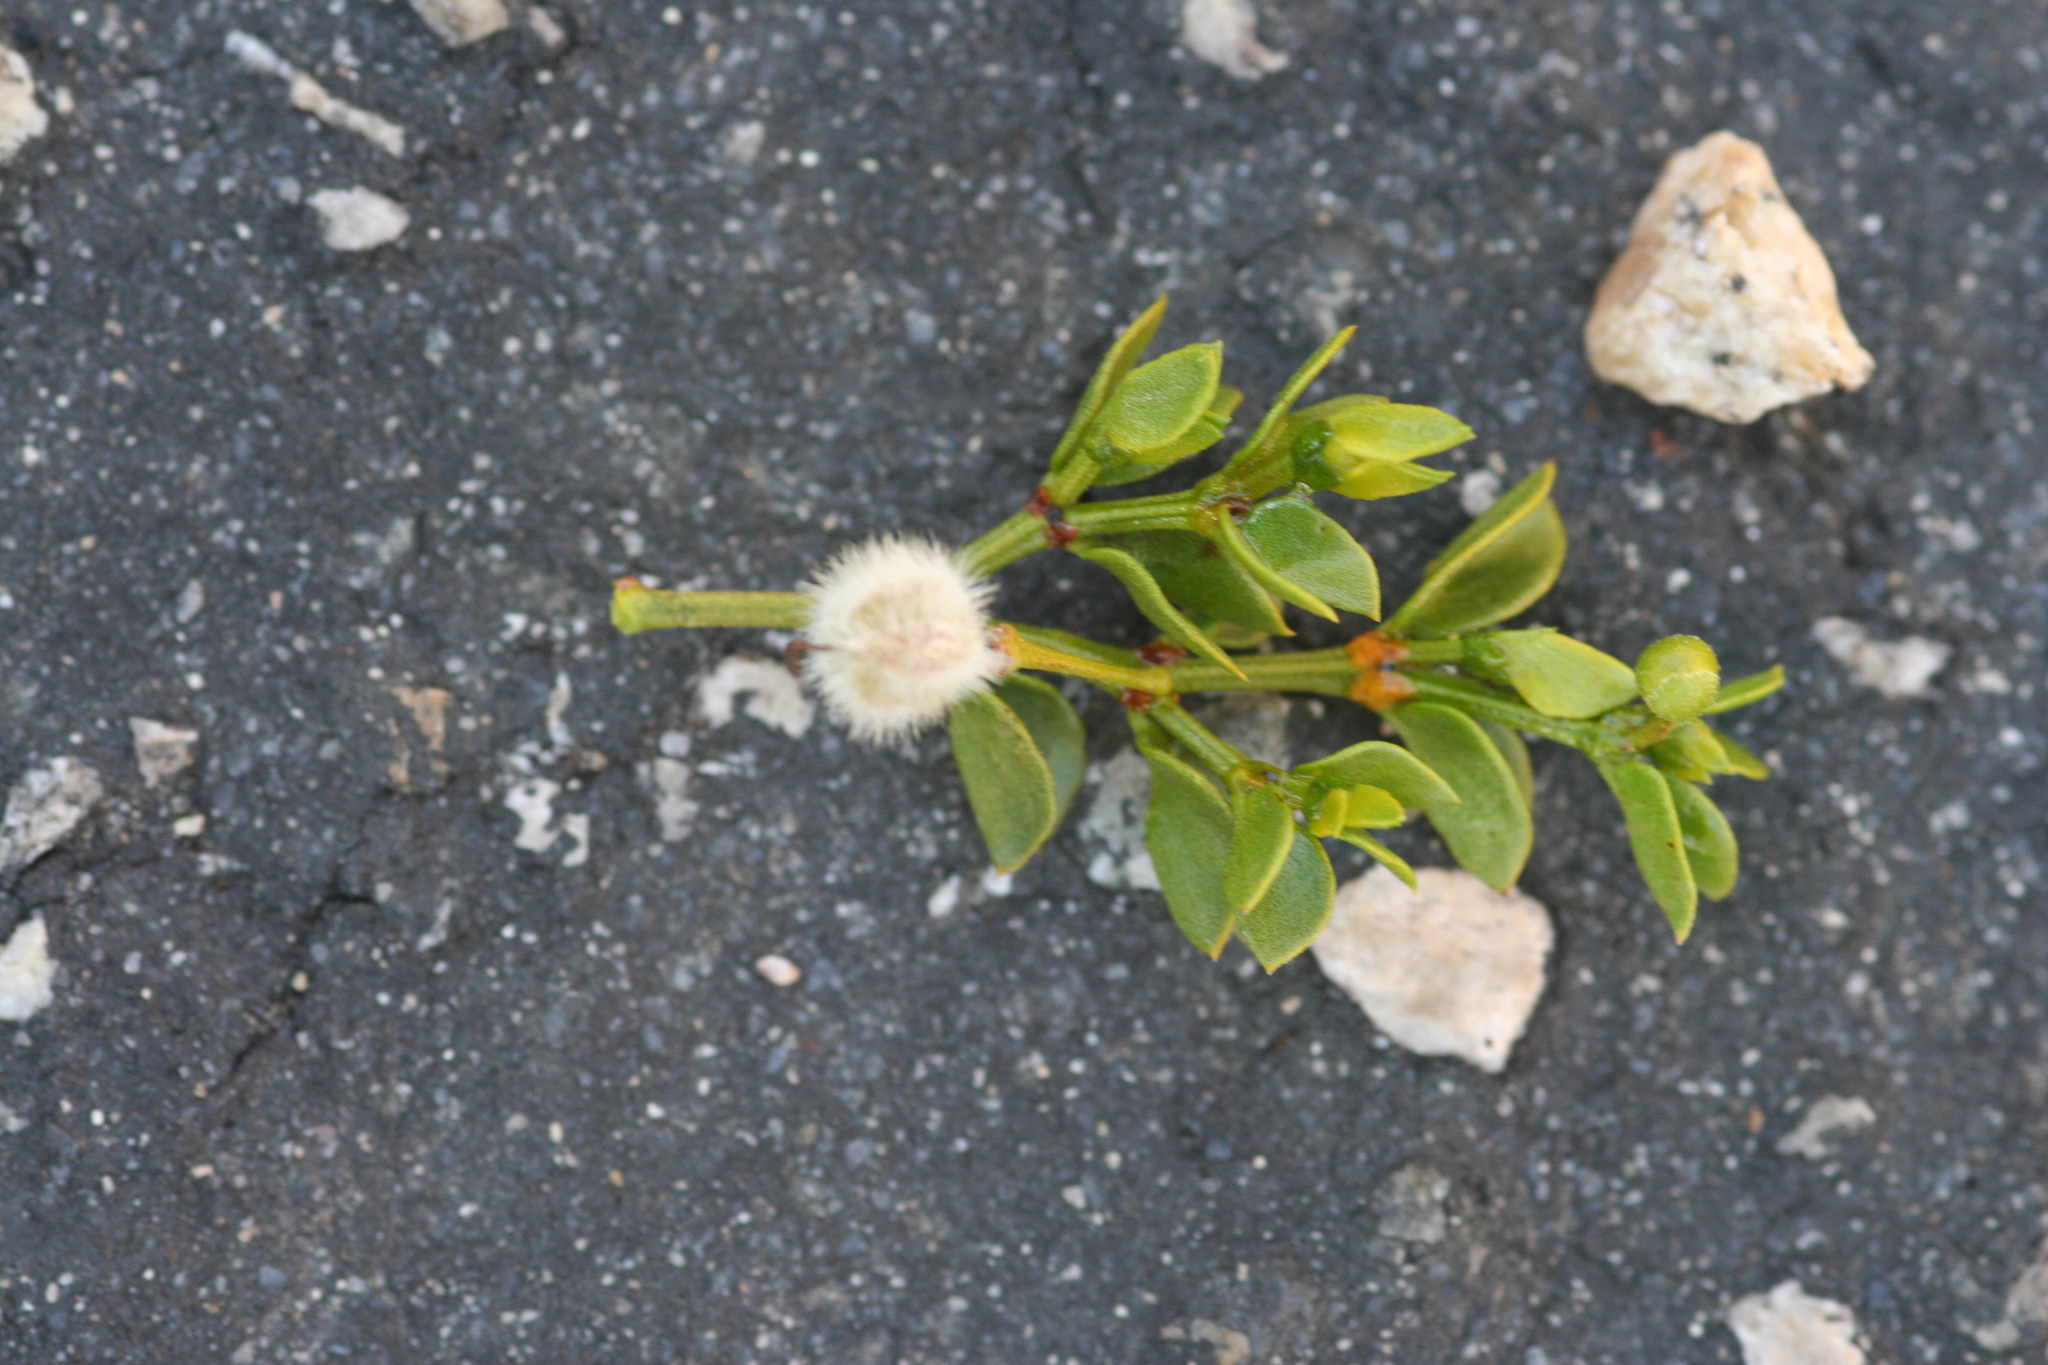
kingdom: Plantae
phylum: Tracheophyta
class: Magnoliopsida
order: Zygophyllales
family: Zygophyllaceae
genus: Larrea
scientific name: Larrea tridentata
